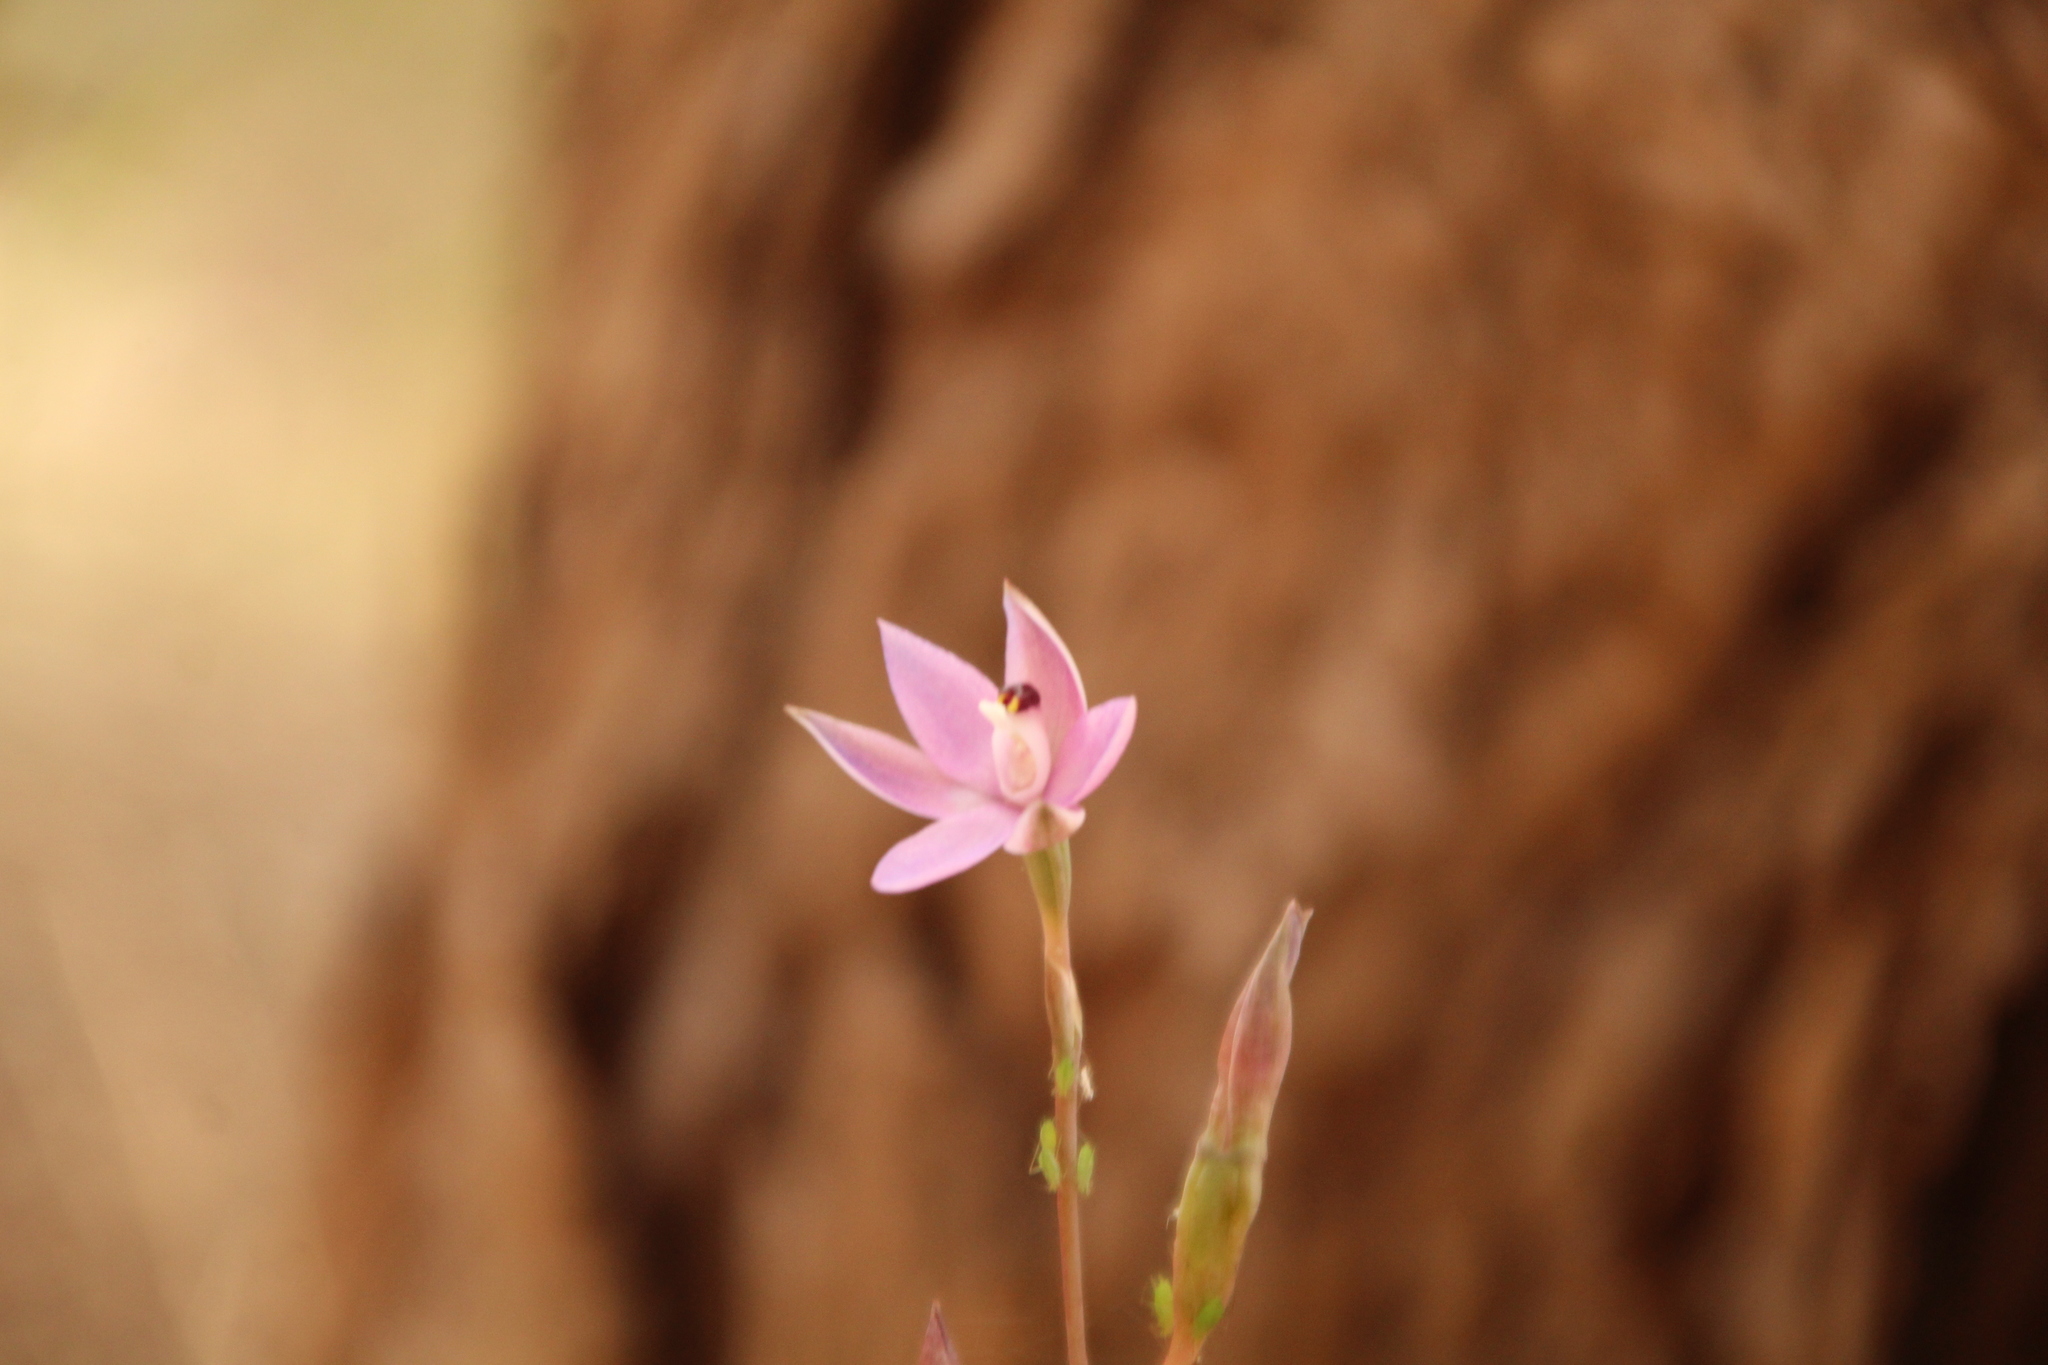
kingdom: Plantae
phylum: Tracheophyta
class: Liliopsida
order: Asparagales
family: Orchidaceae
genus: Thelymitra
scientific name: Thelymitra vulgaris
